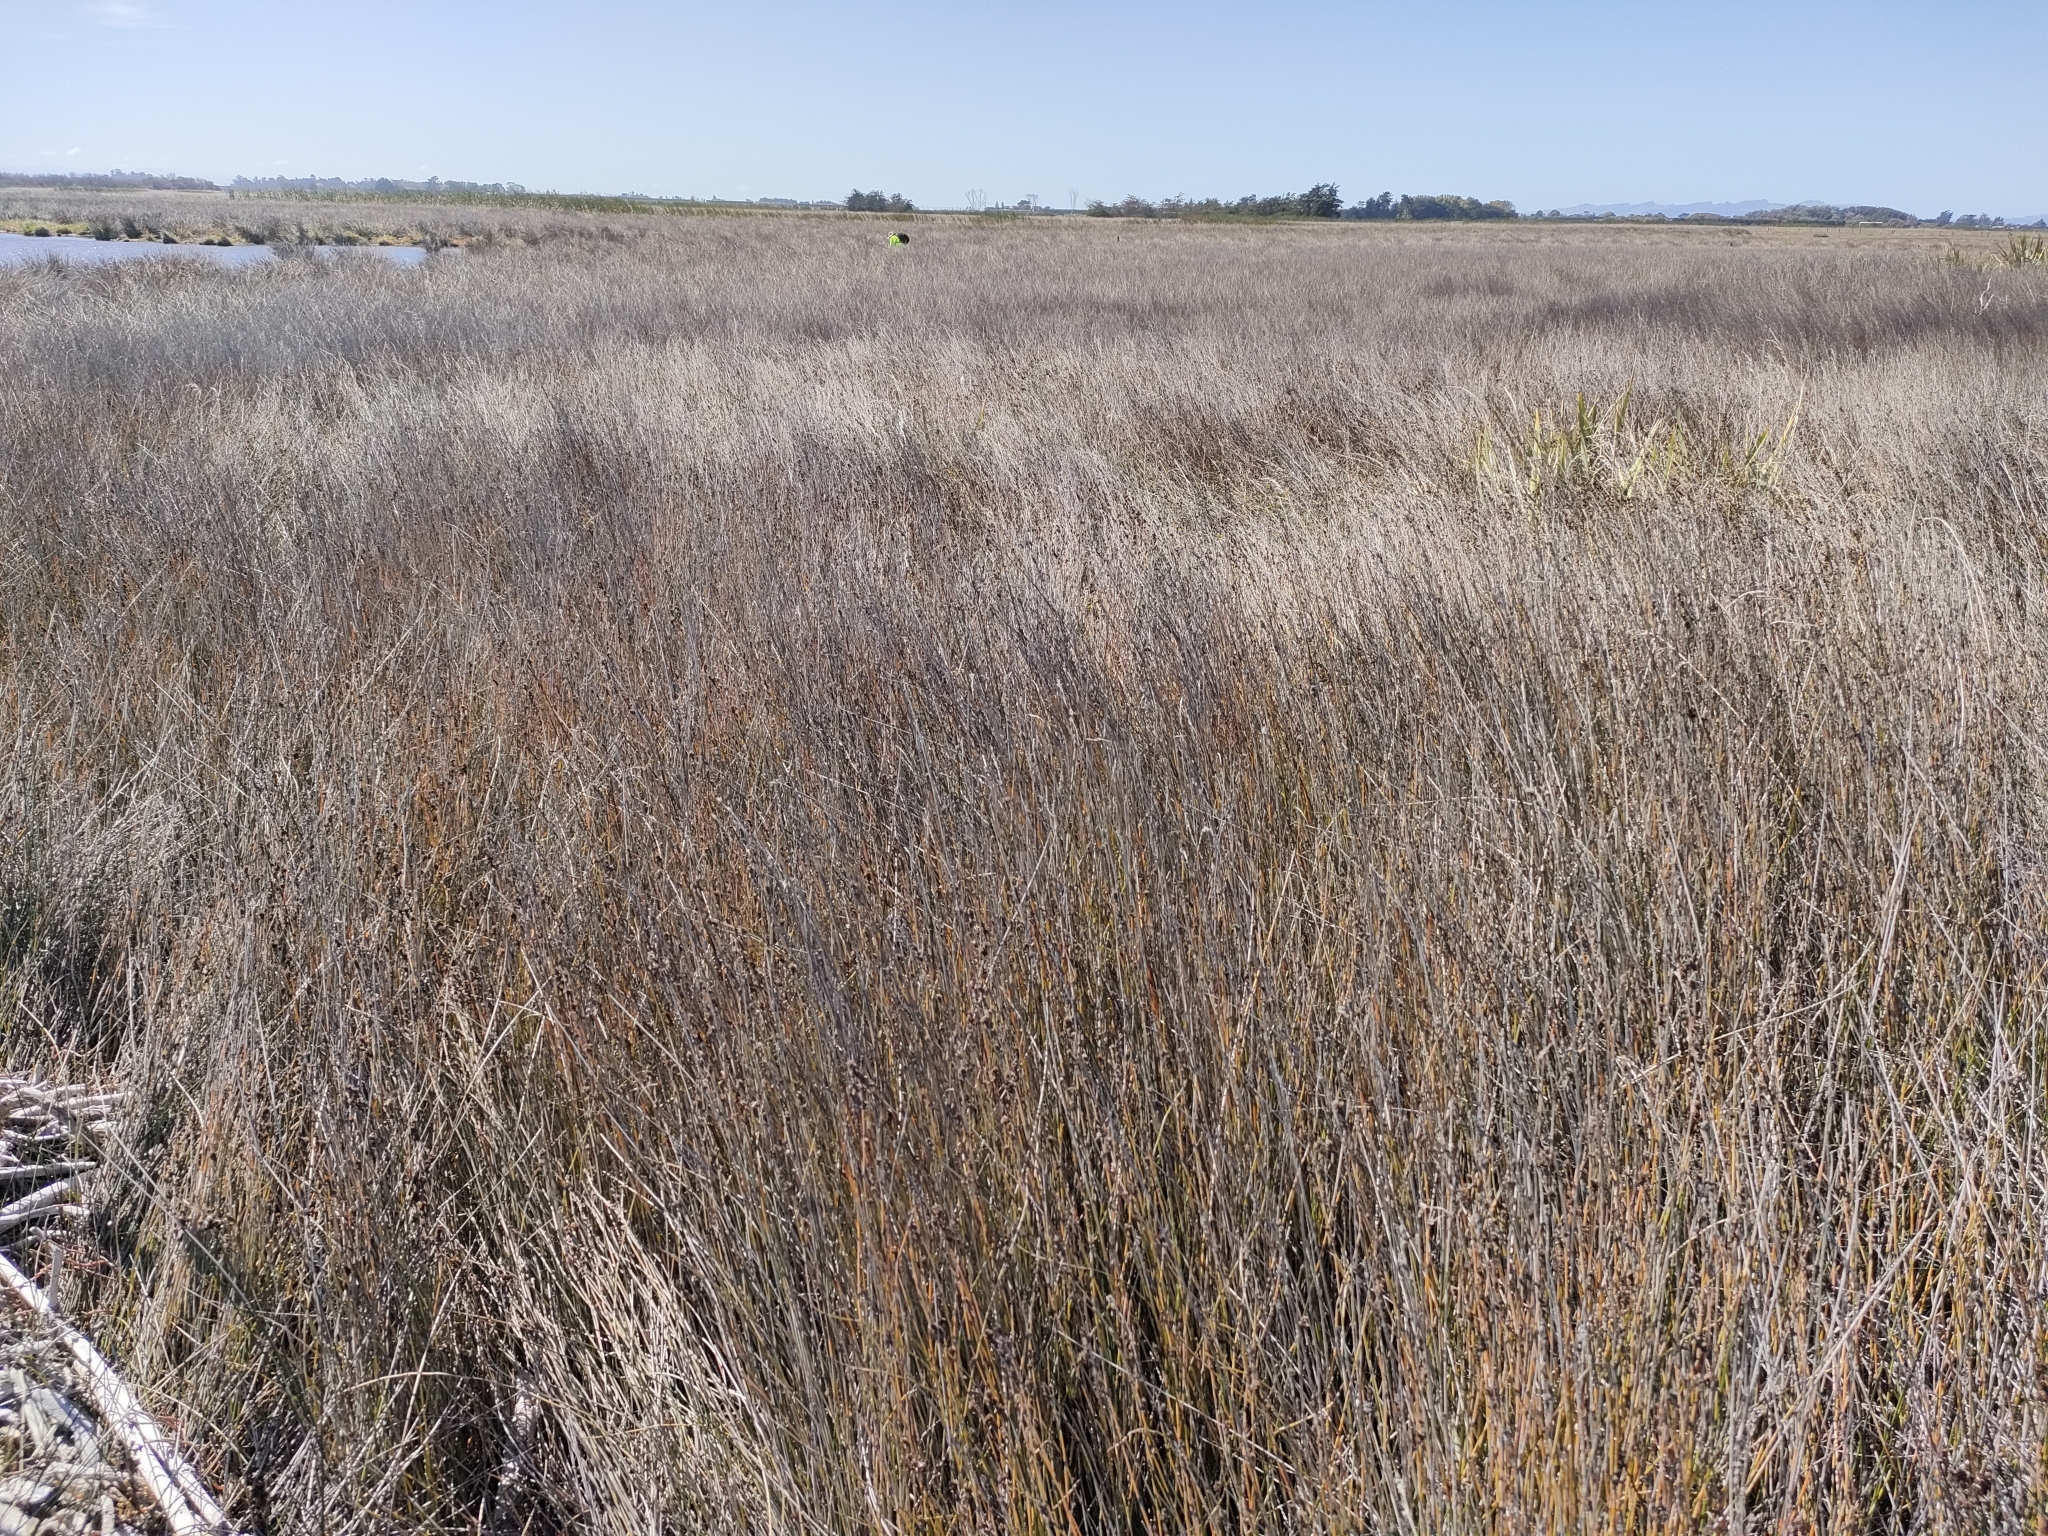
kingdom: Plantae
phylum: Tracheophyta
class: Liliopsida
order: Poales
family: Restionaceae
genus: Apodasmia
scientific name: Apodasmia similis
